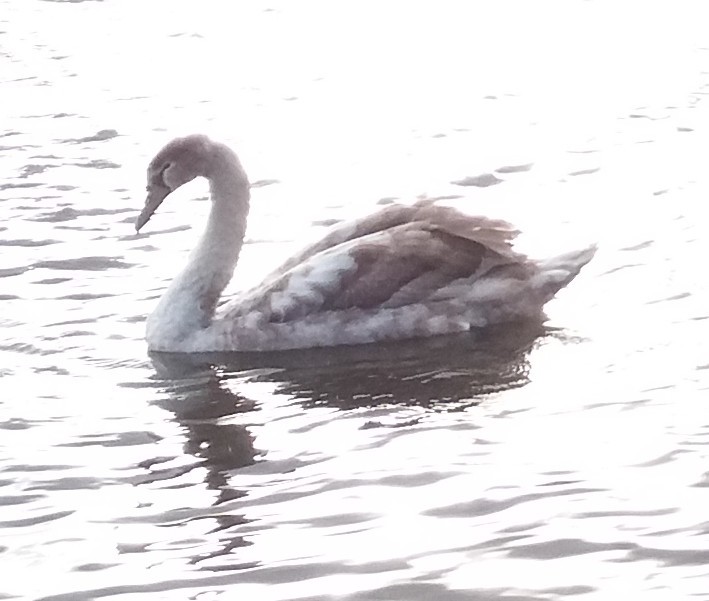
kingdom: Animalia
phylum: Chordata
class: Aves
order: Anseriformes
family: Anatidae
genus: Cygnus
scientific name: Cygnus olor
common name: Mute swan
